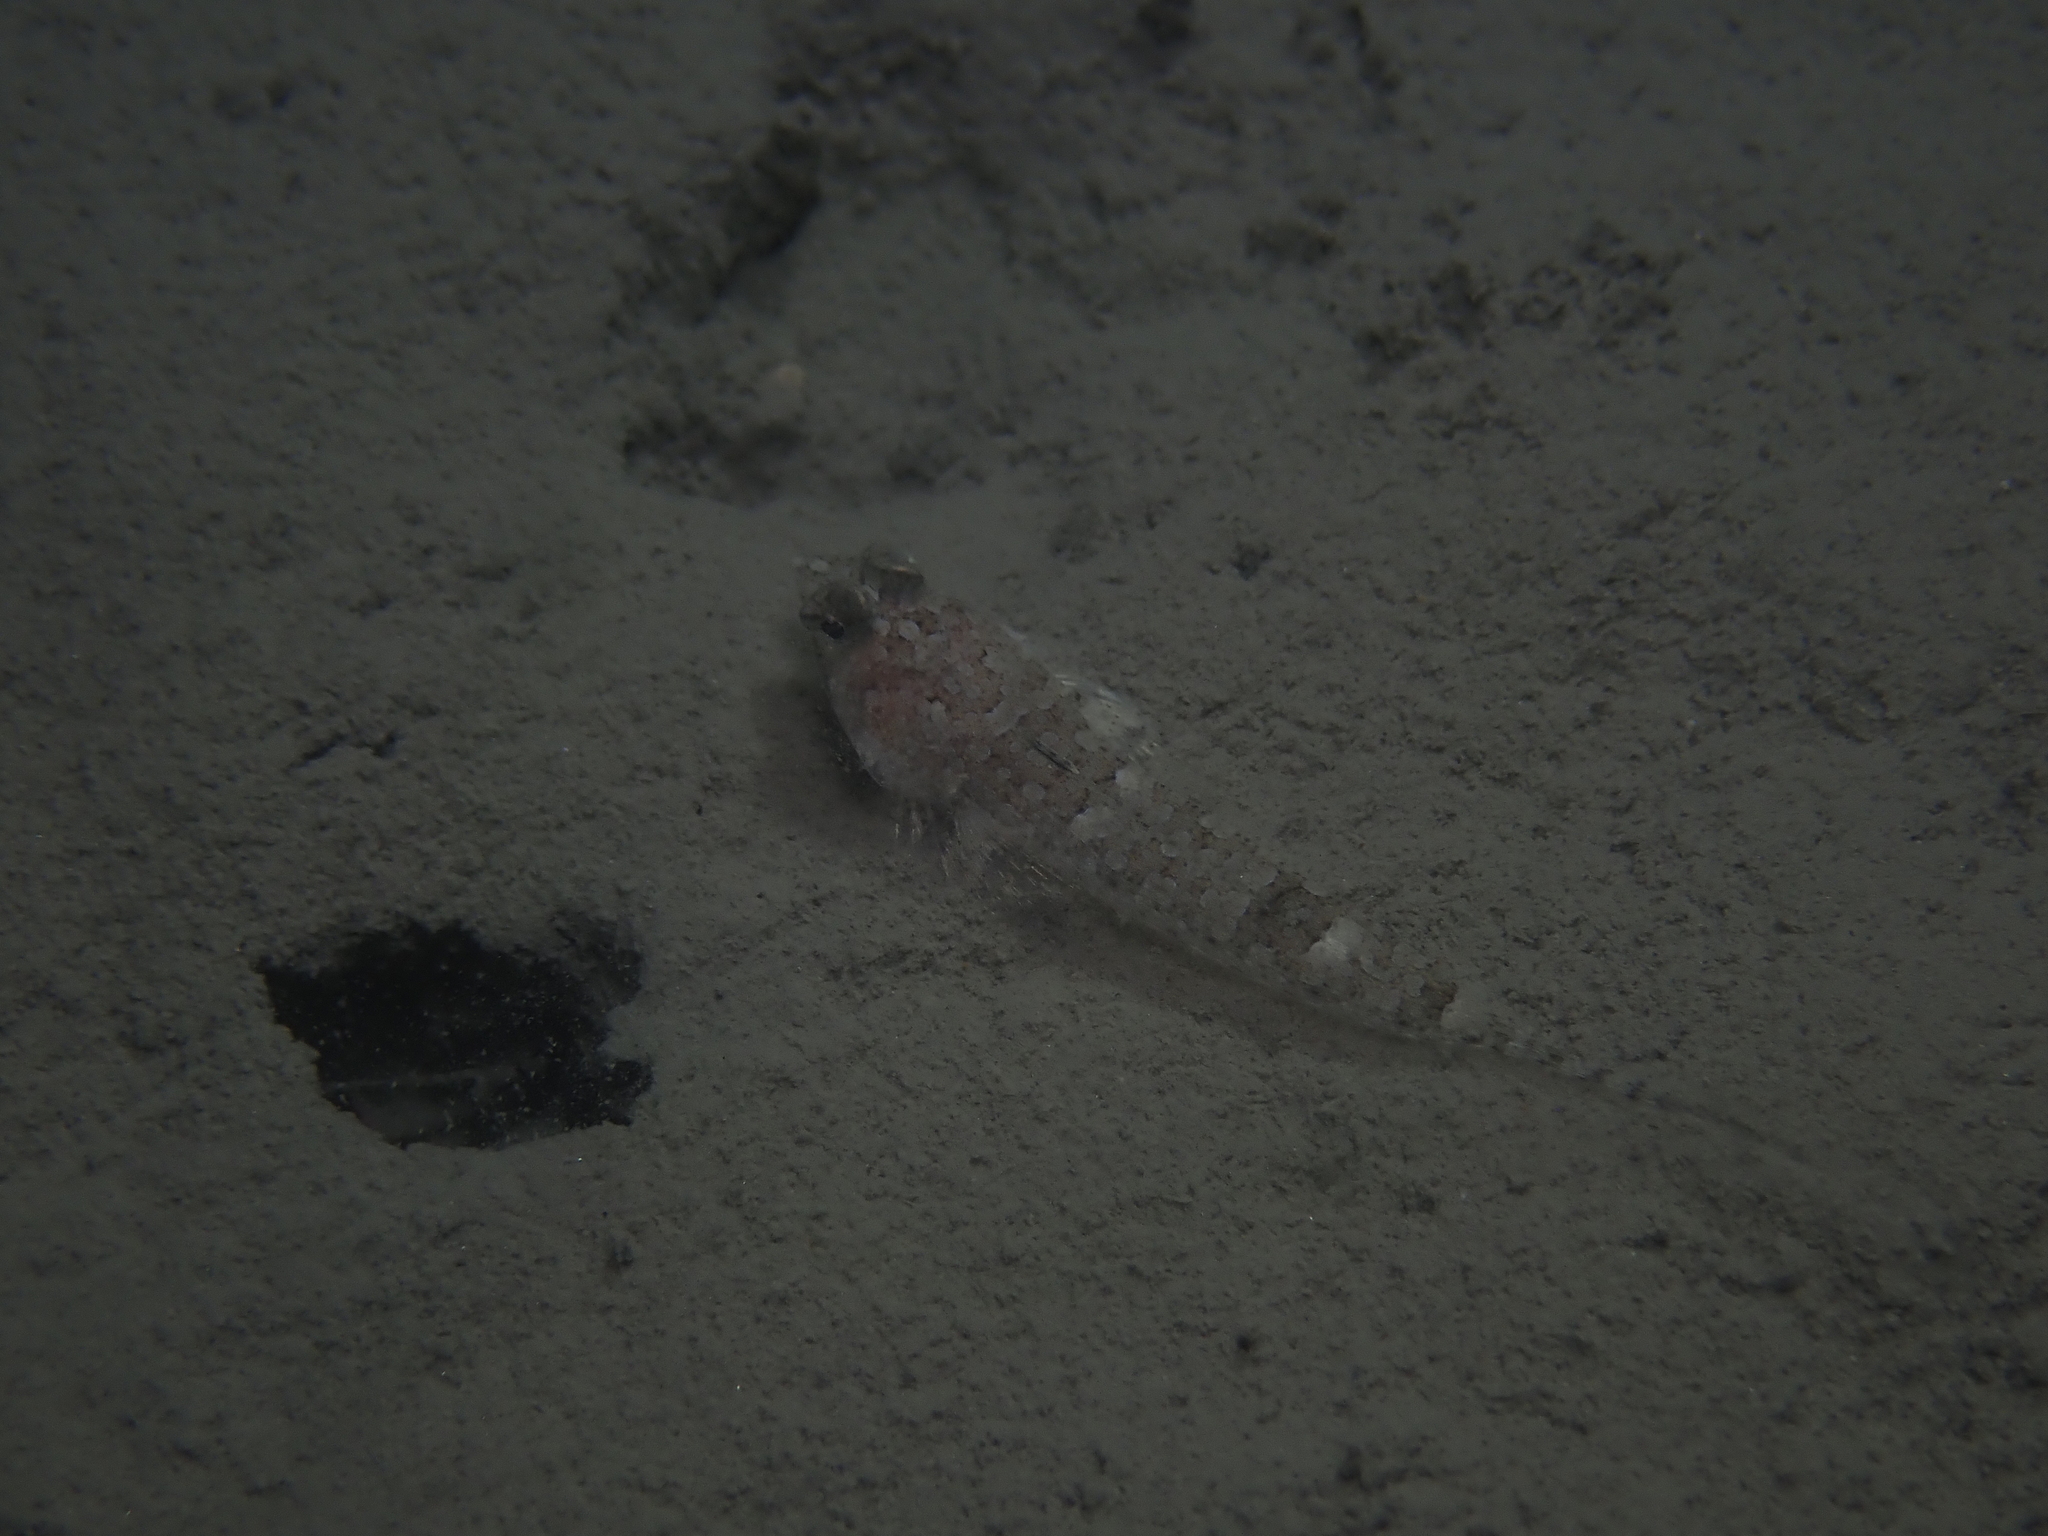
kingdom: Animalia
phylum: Chordata
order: Perciformes
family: Callionymidae
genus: Callionymus
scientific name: Callionymus risso
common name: Risso’s dragonet
